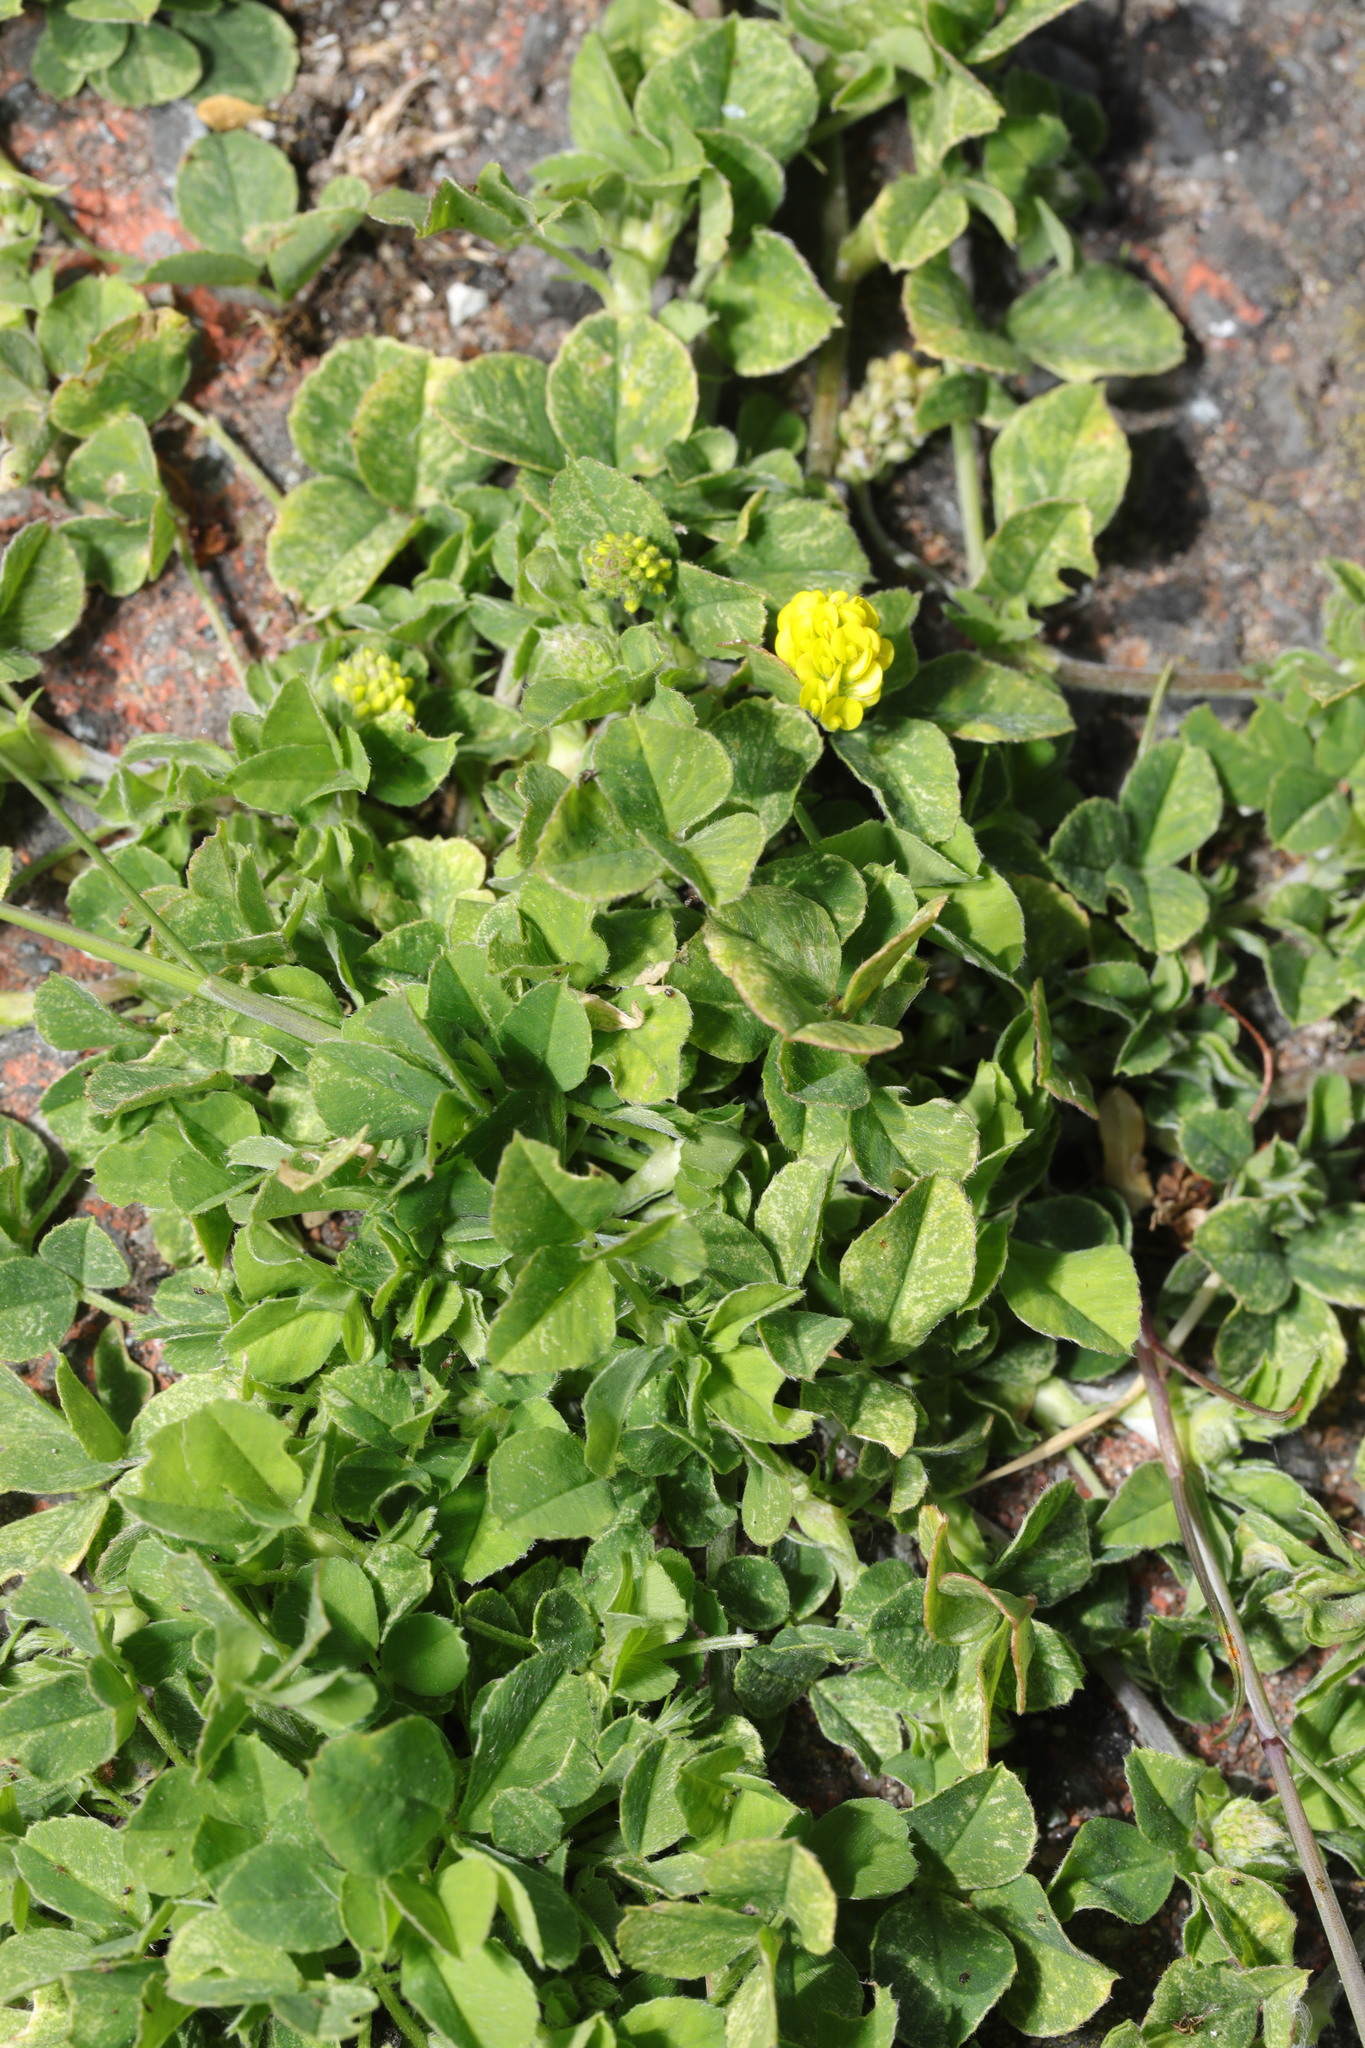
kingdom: Plantae
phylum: Tracheophyta
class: Magnoliopsida
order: Fabales
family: Fabaceae
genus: Medicago
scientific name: Medicago lupulina
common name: Black medick
